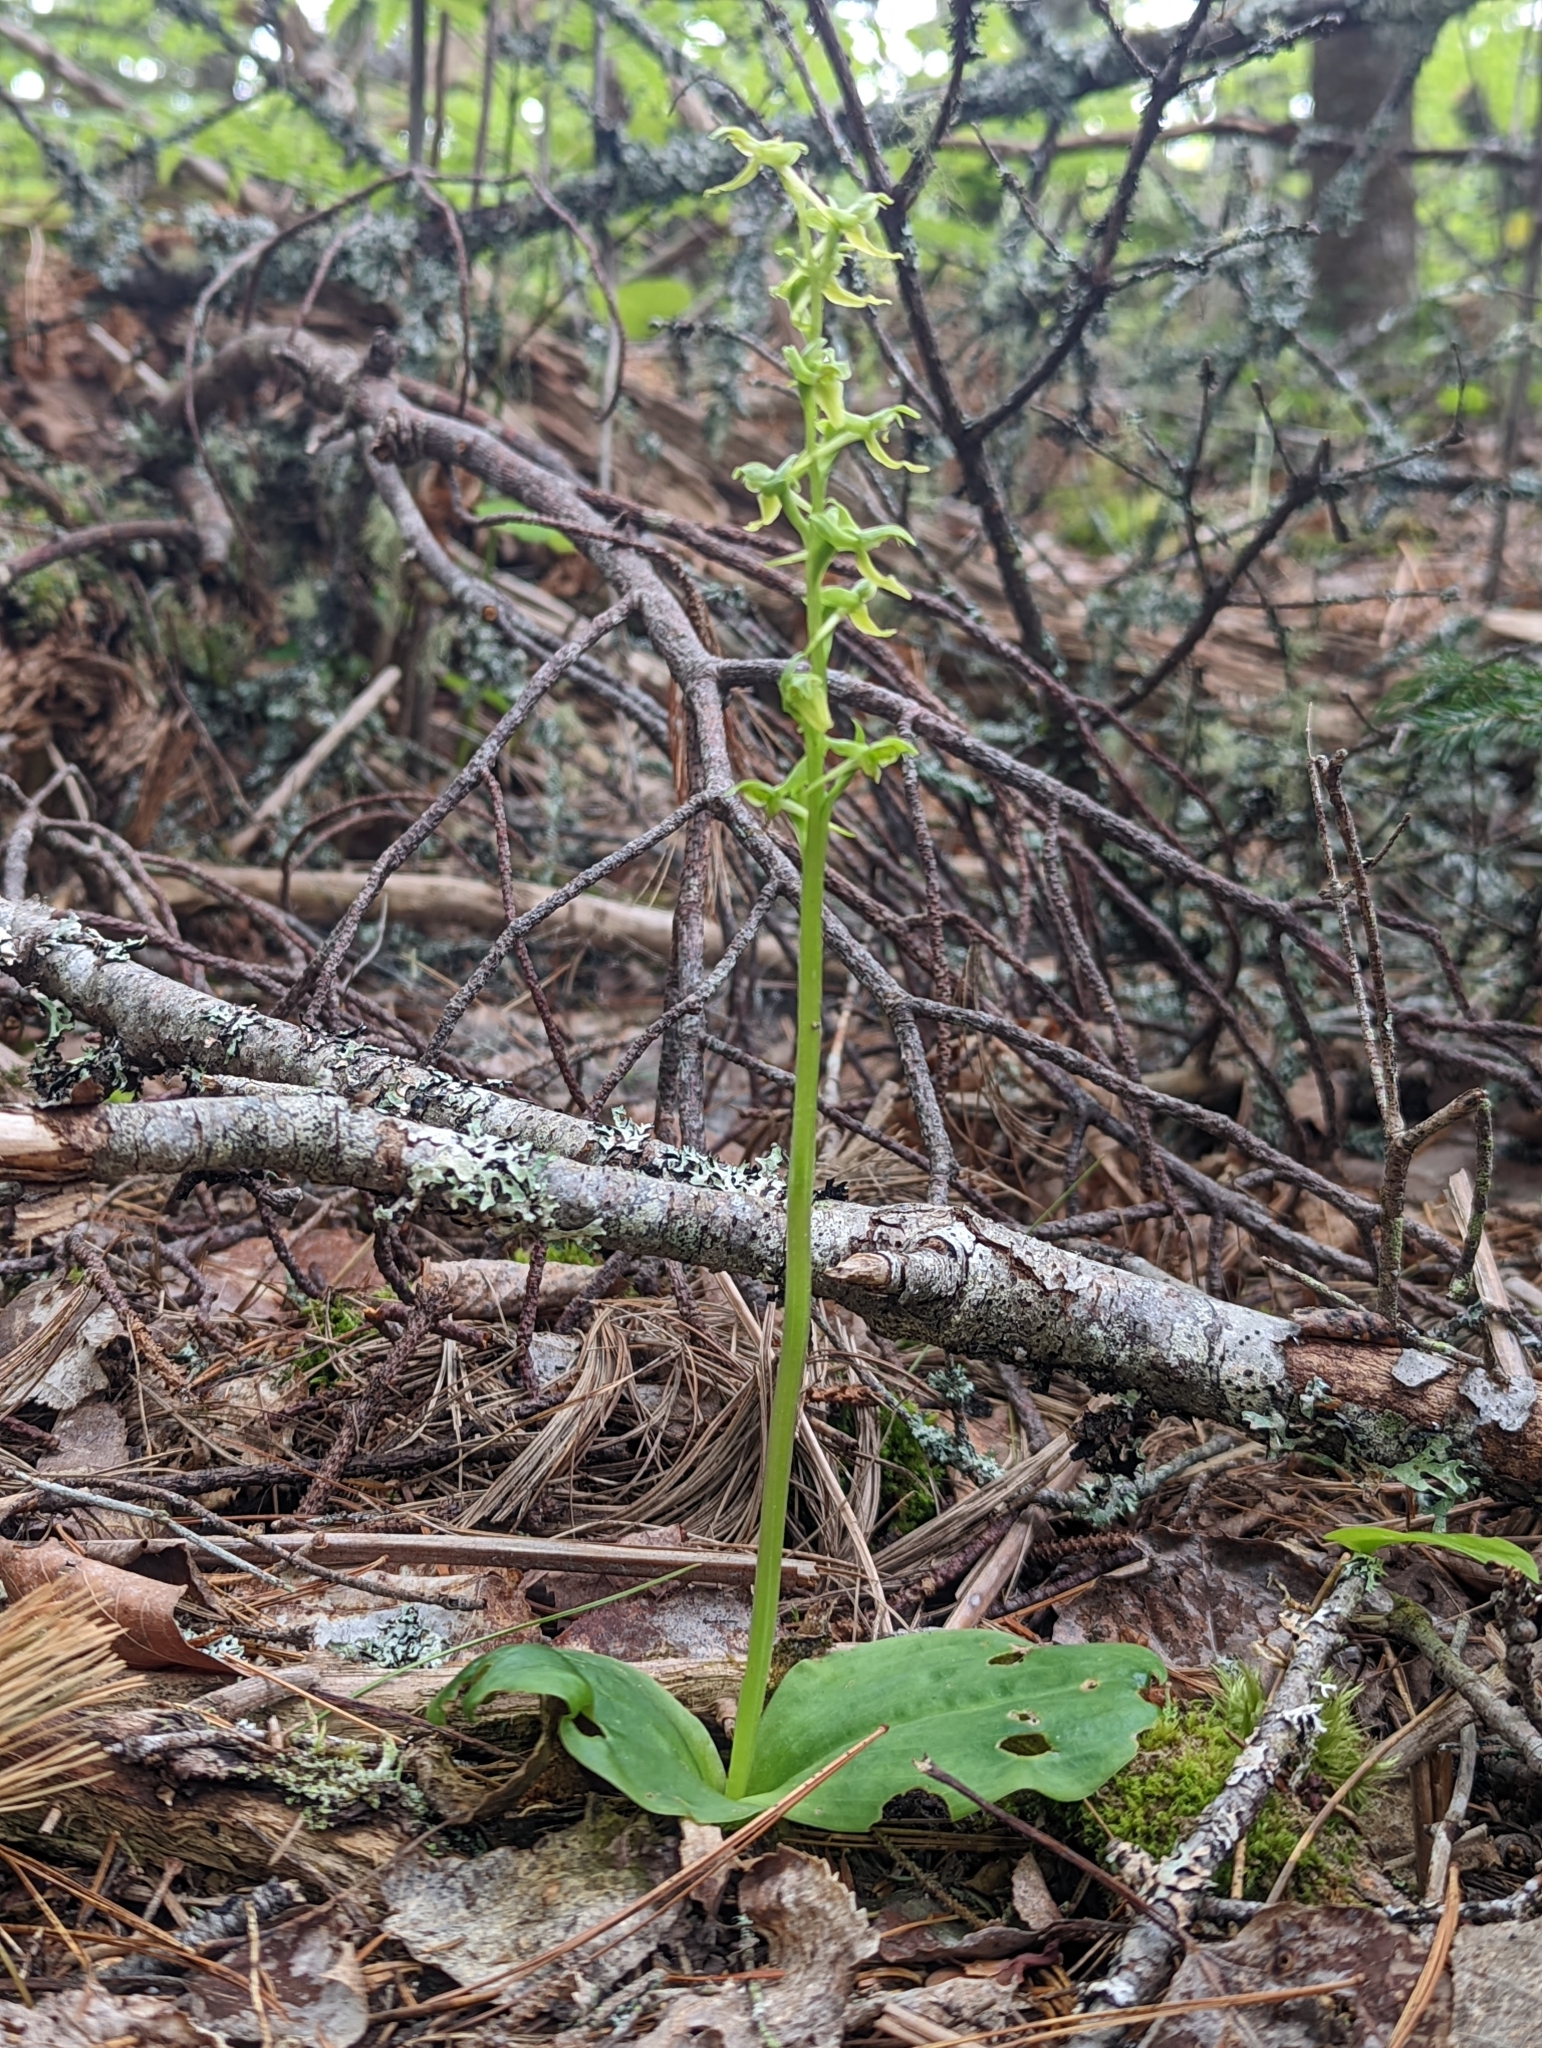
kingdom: Plantae
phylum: Tracheophyta
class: Liliopsida
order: Asparagales
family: Orchidaceae
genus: Platanthera
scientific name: Platanthera hookeri
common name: Hooker's orchid
